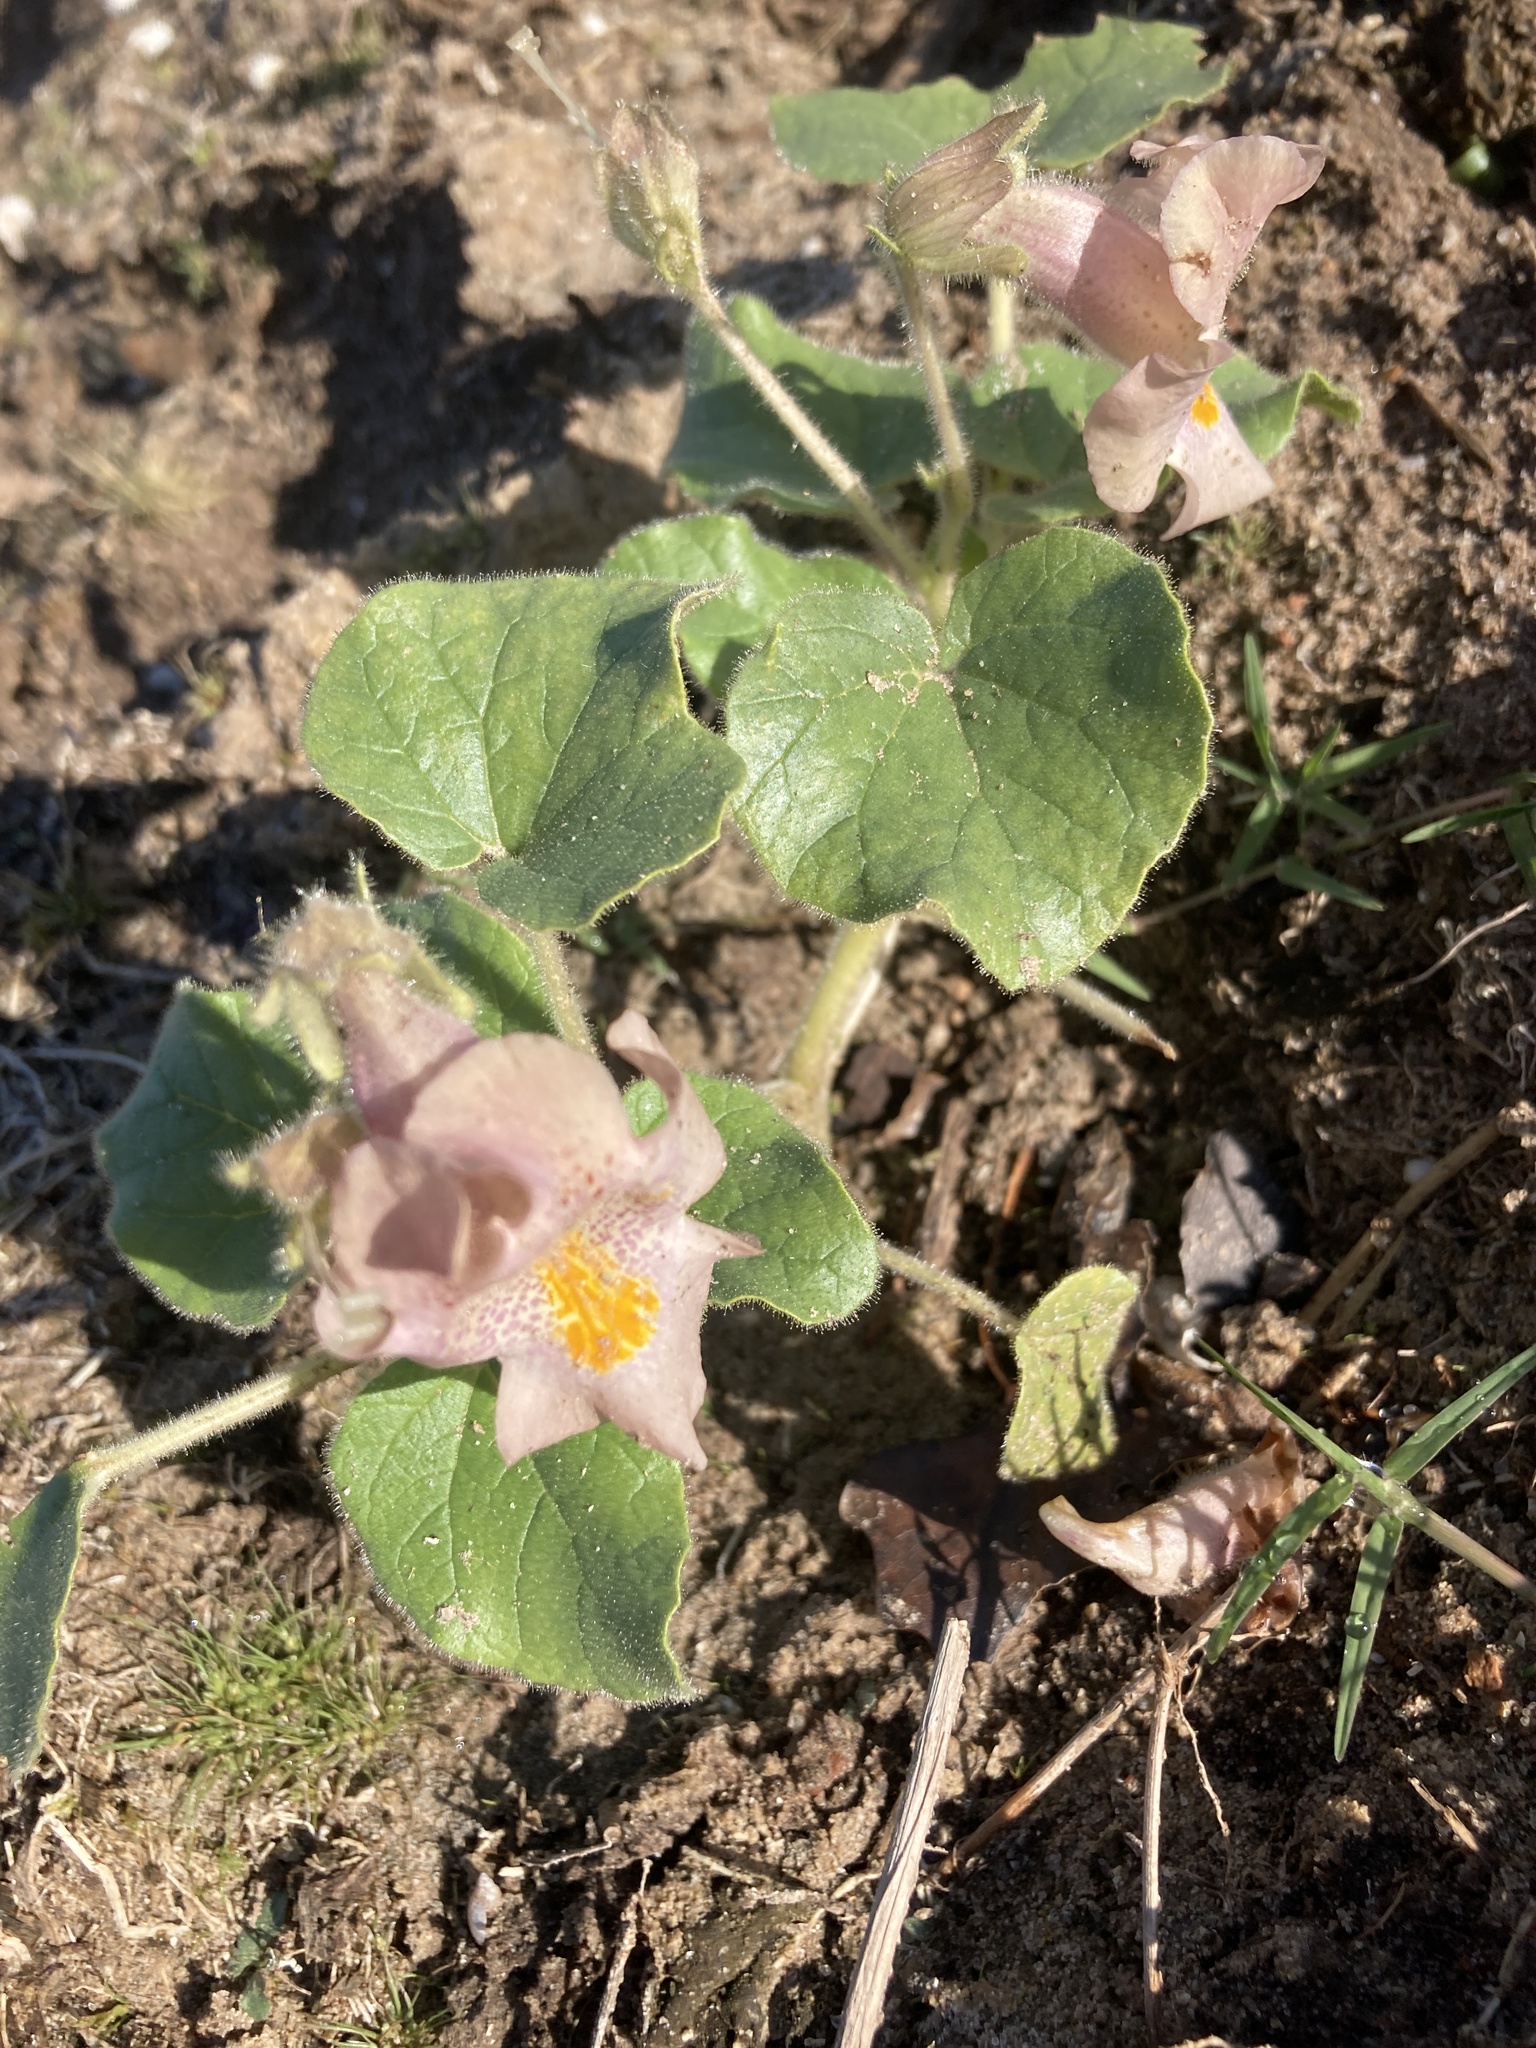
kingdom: Plantae
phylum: Tracheophyta
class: Magnoliopsida
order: Lamiales
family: Martyniaceae
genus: Proboscidea
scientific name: Proboscidea louisianica
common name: Elephant tusks
